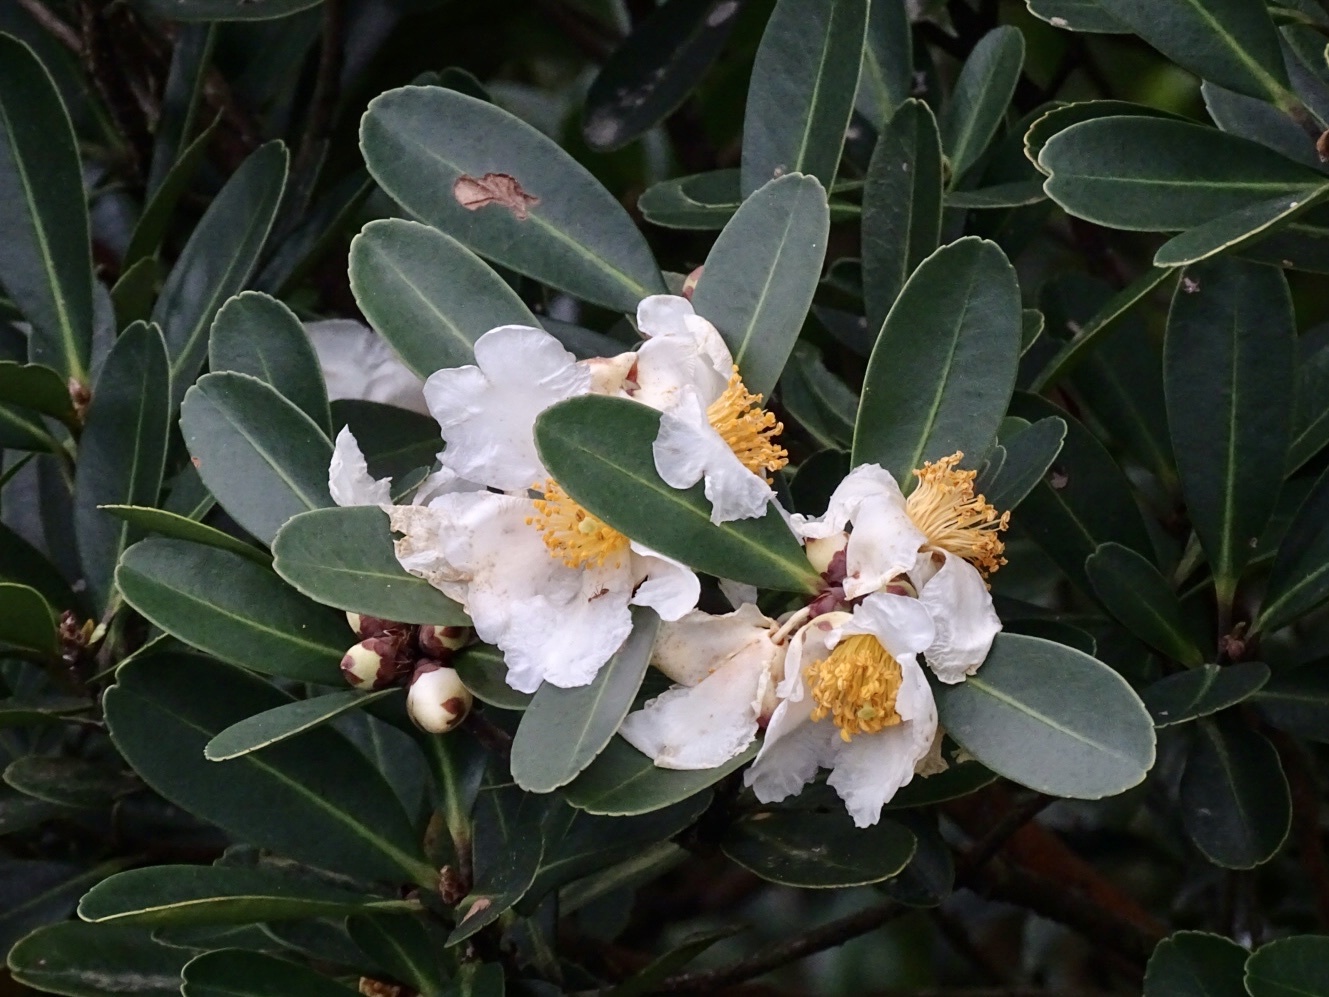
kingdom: Plantae
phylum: Tracheophyta
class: Magnoliopsida
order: Ericales
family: Theaceae
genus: Polyspora
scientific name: Polyspora axillaris
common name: Fried egg tree
